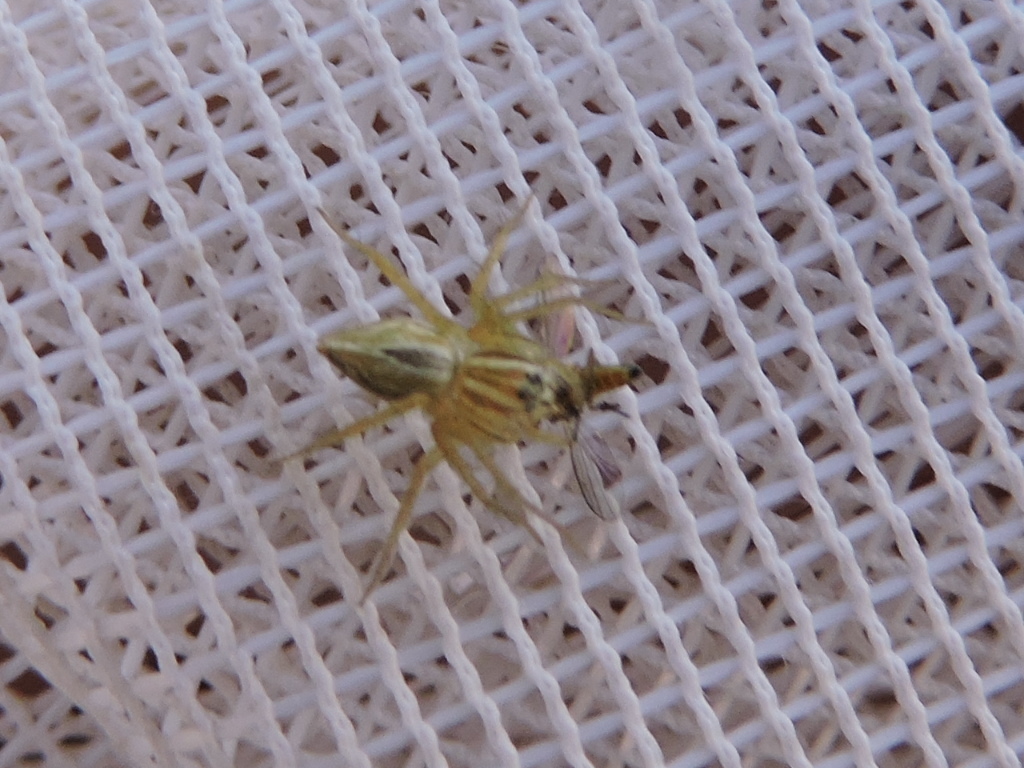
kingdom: Animalia
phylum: Arthropoda
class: Arachnida
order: Araneae
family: Oxyopidae
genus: Oxyopes
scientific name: Oxyopes salticus
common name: Lynx spiders
